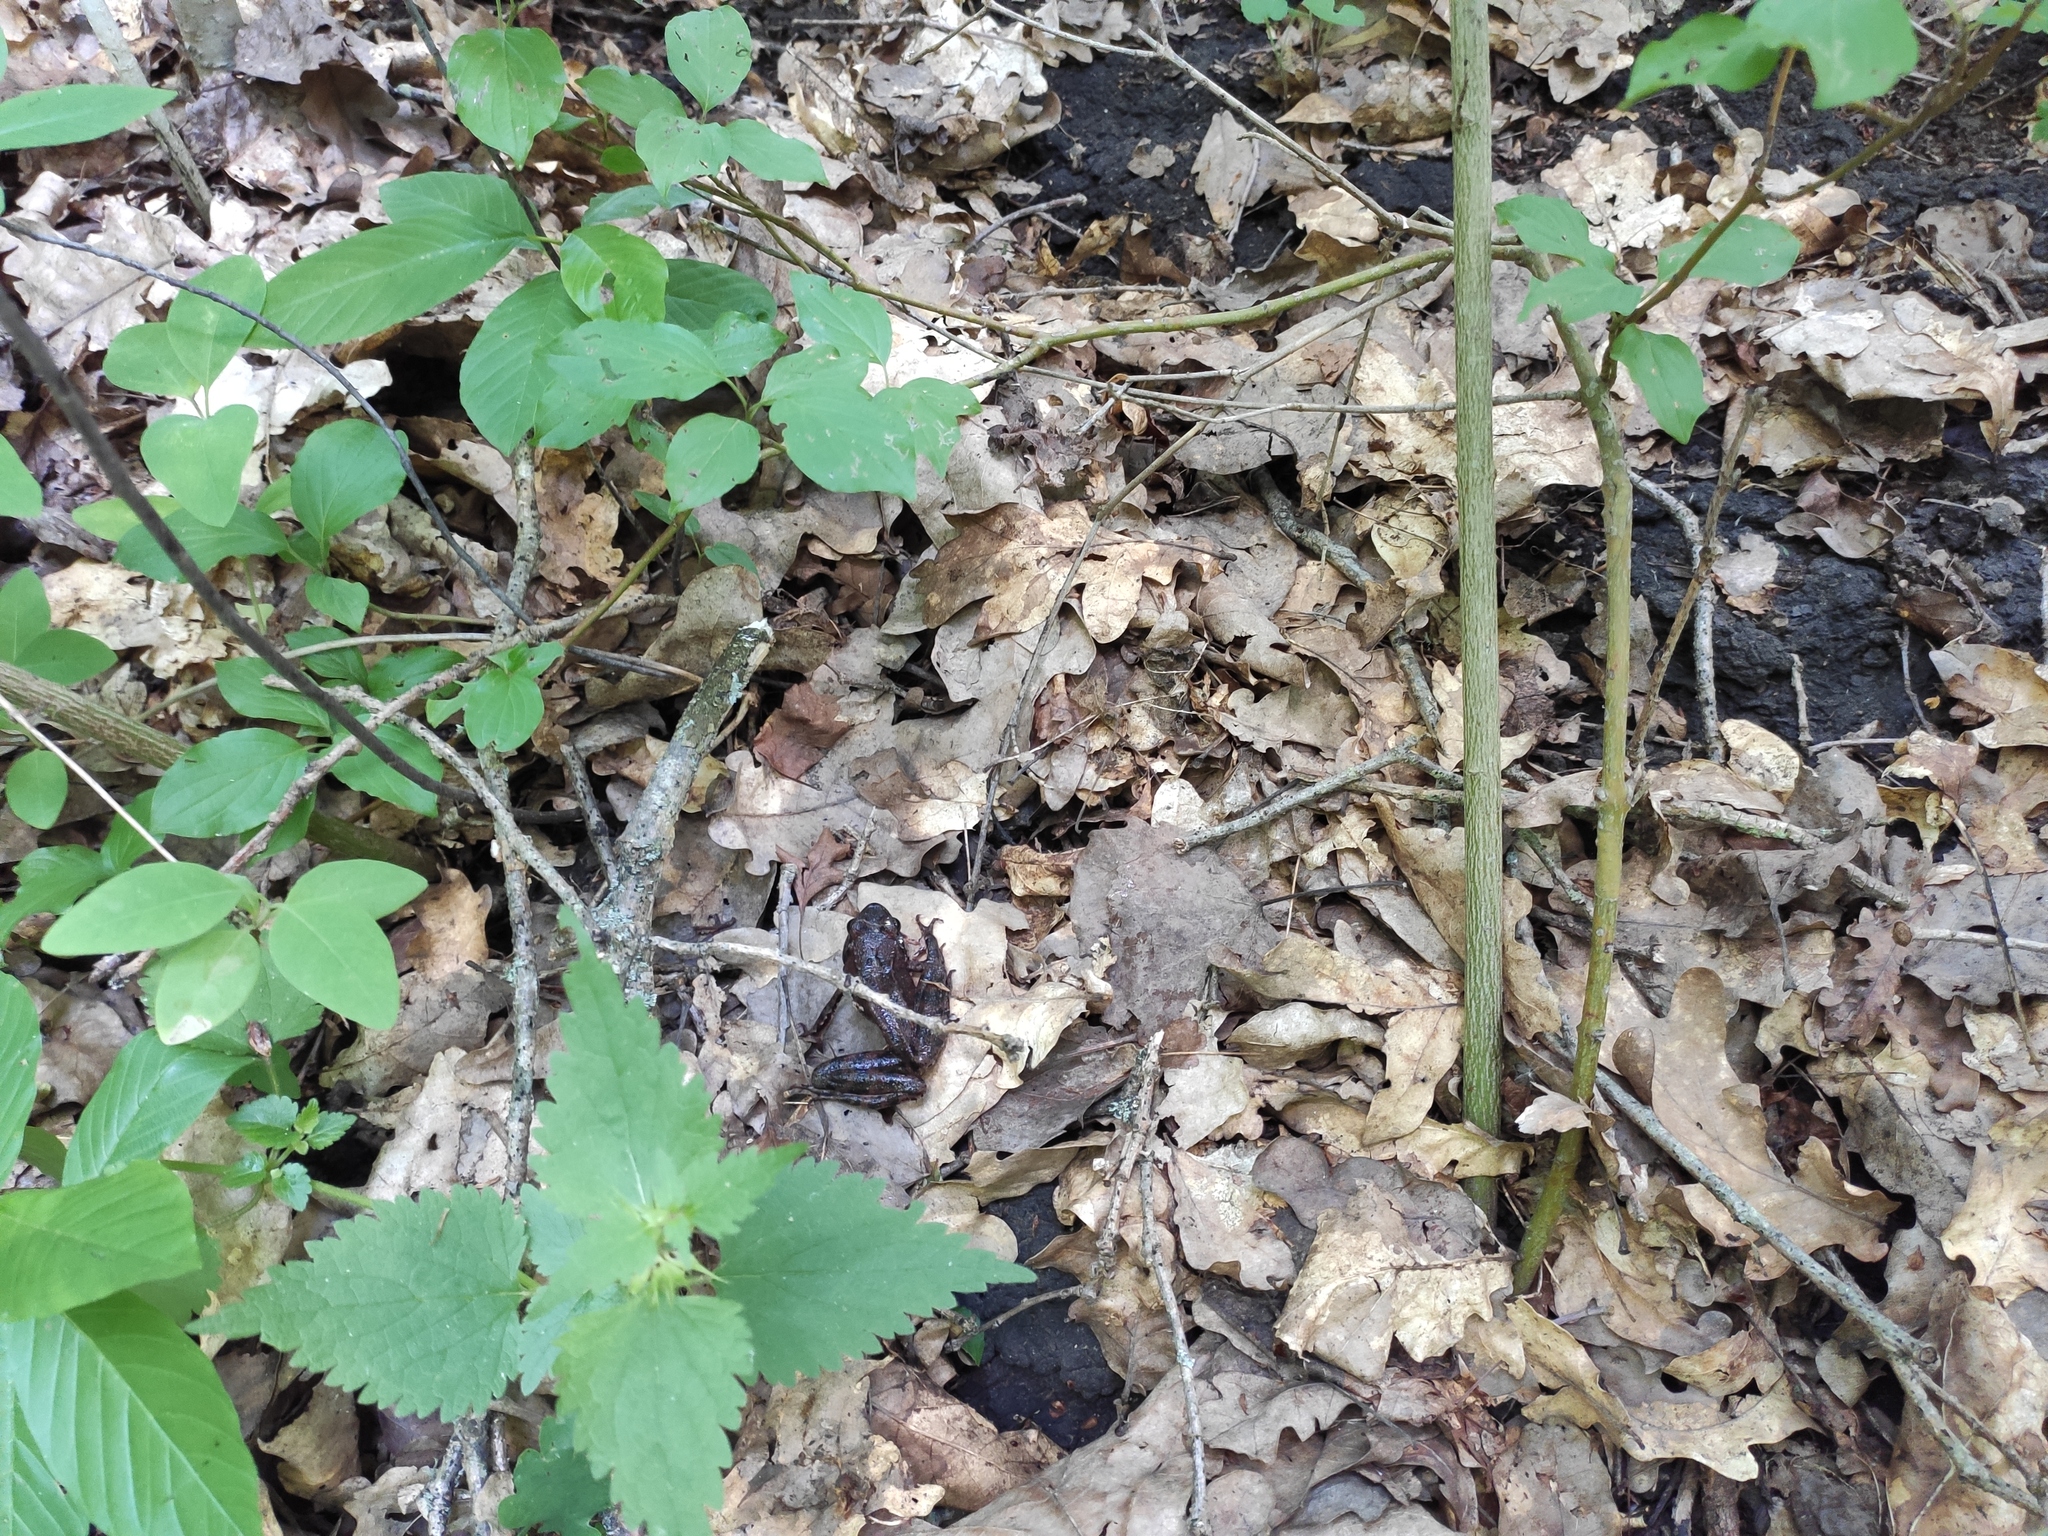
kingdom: Animalia
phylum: Chordata
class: Amphibia
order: Anura
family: Ranidae
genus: Rana
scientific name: Rana macrocnemis
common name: Banded frog
